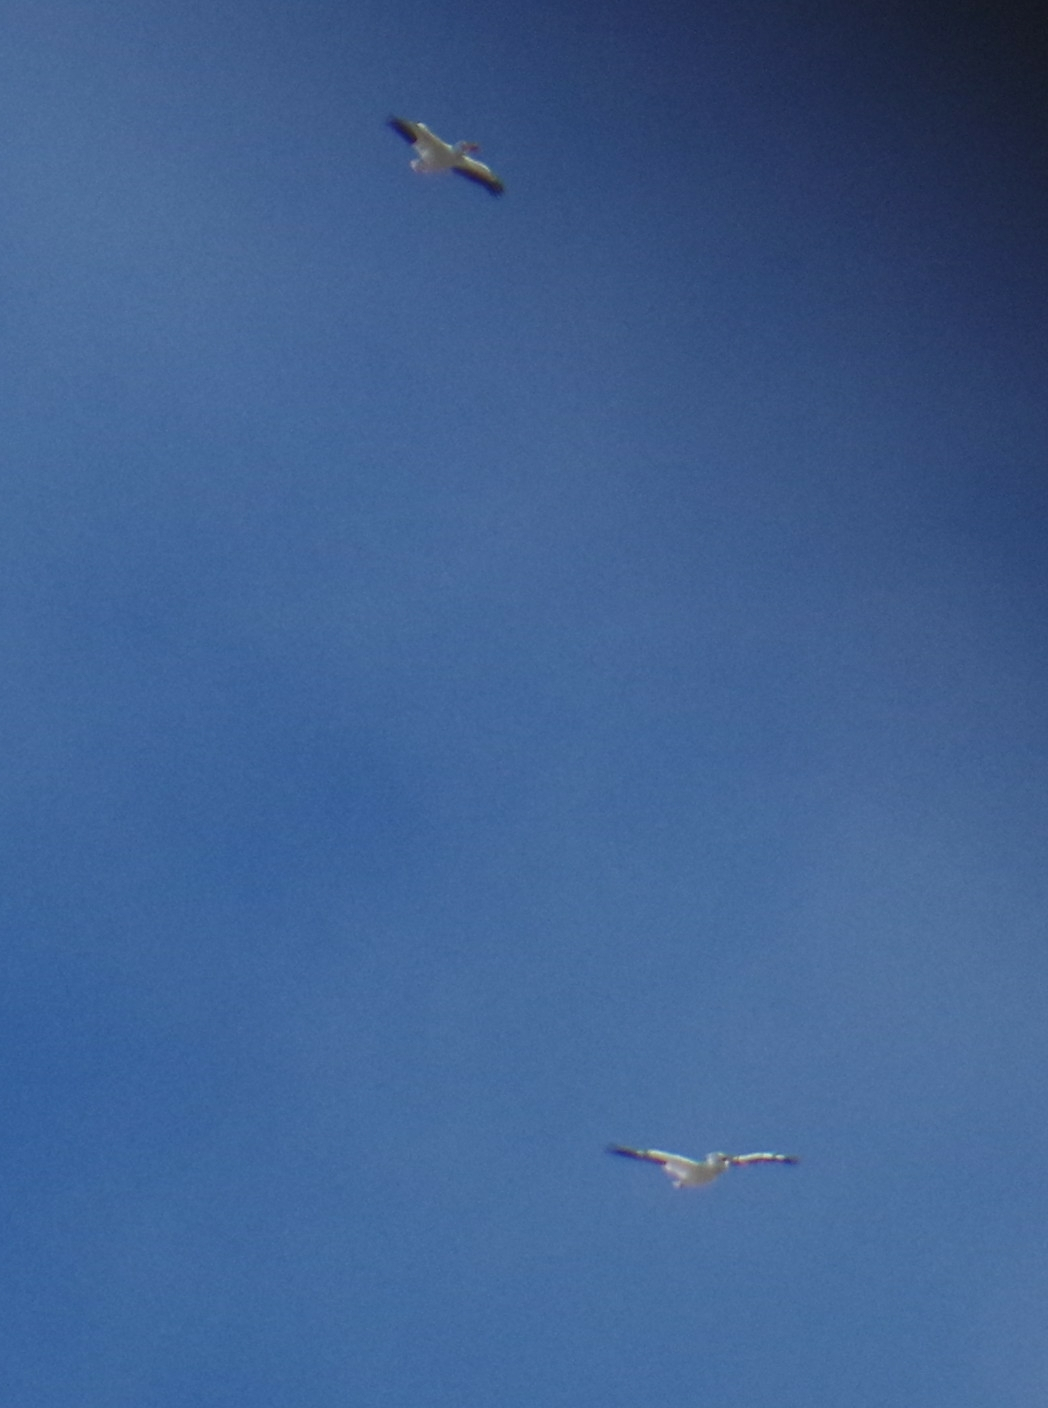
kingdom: Animalia
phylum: Chordata
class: Aves
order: Pelecaniformes
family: Pelecanidae
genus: Pelecanus
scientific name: Pelecanus erythrorhynchos
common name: American white pelican
